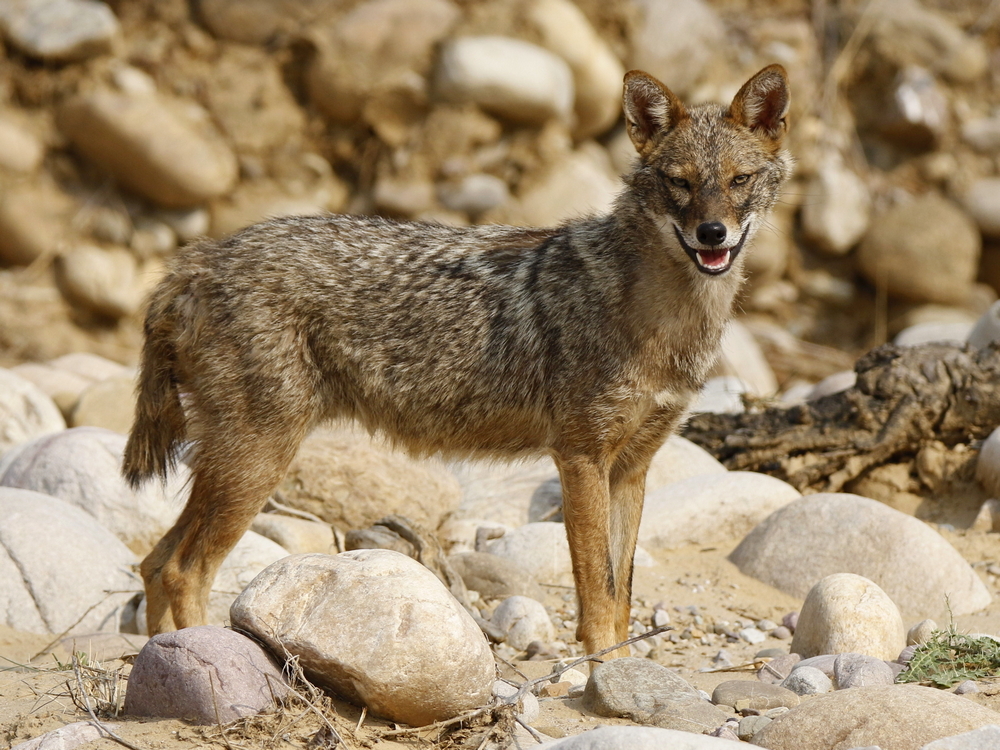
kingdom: Animalia
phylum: Chordata
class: Mammalia
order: Carnivora
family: Canidae
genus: Canis
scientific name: Canis aureus
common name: Golden jackal
